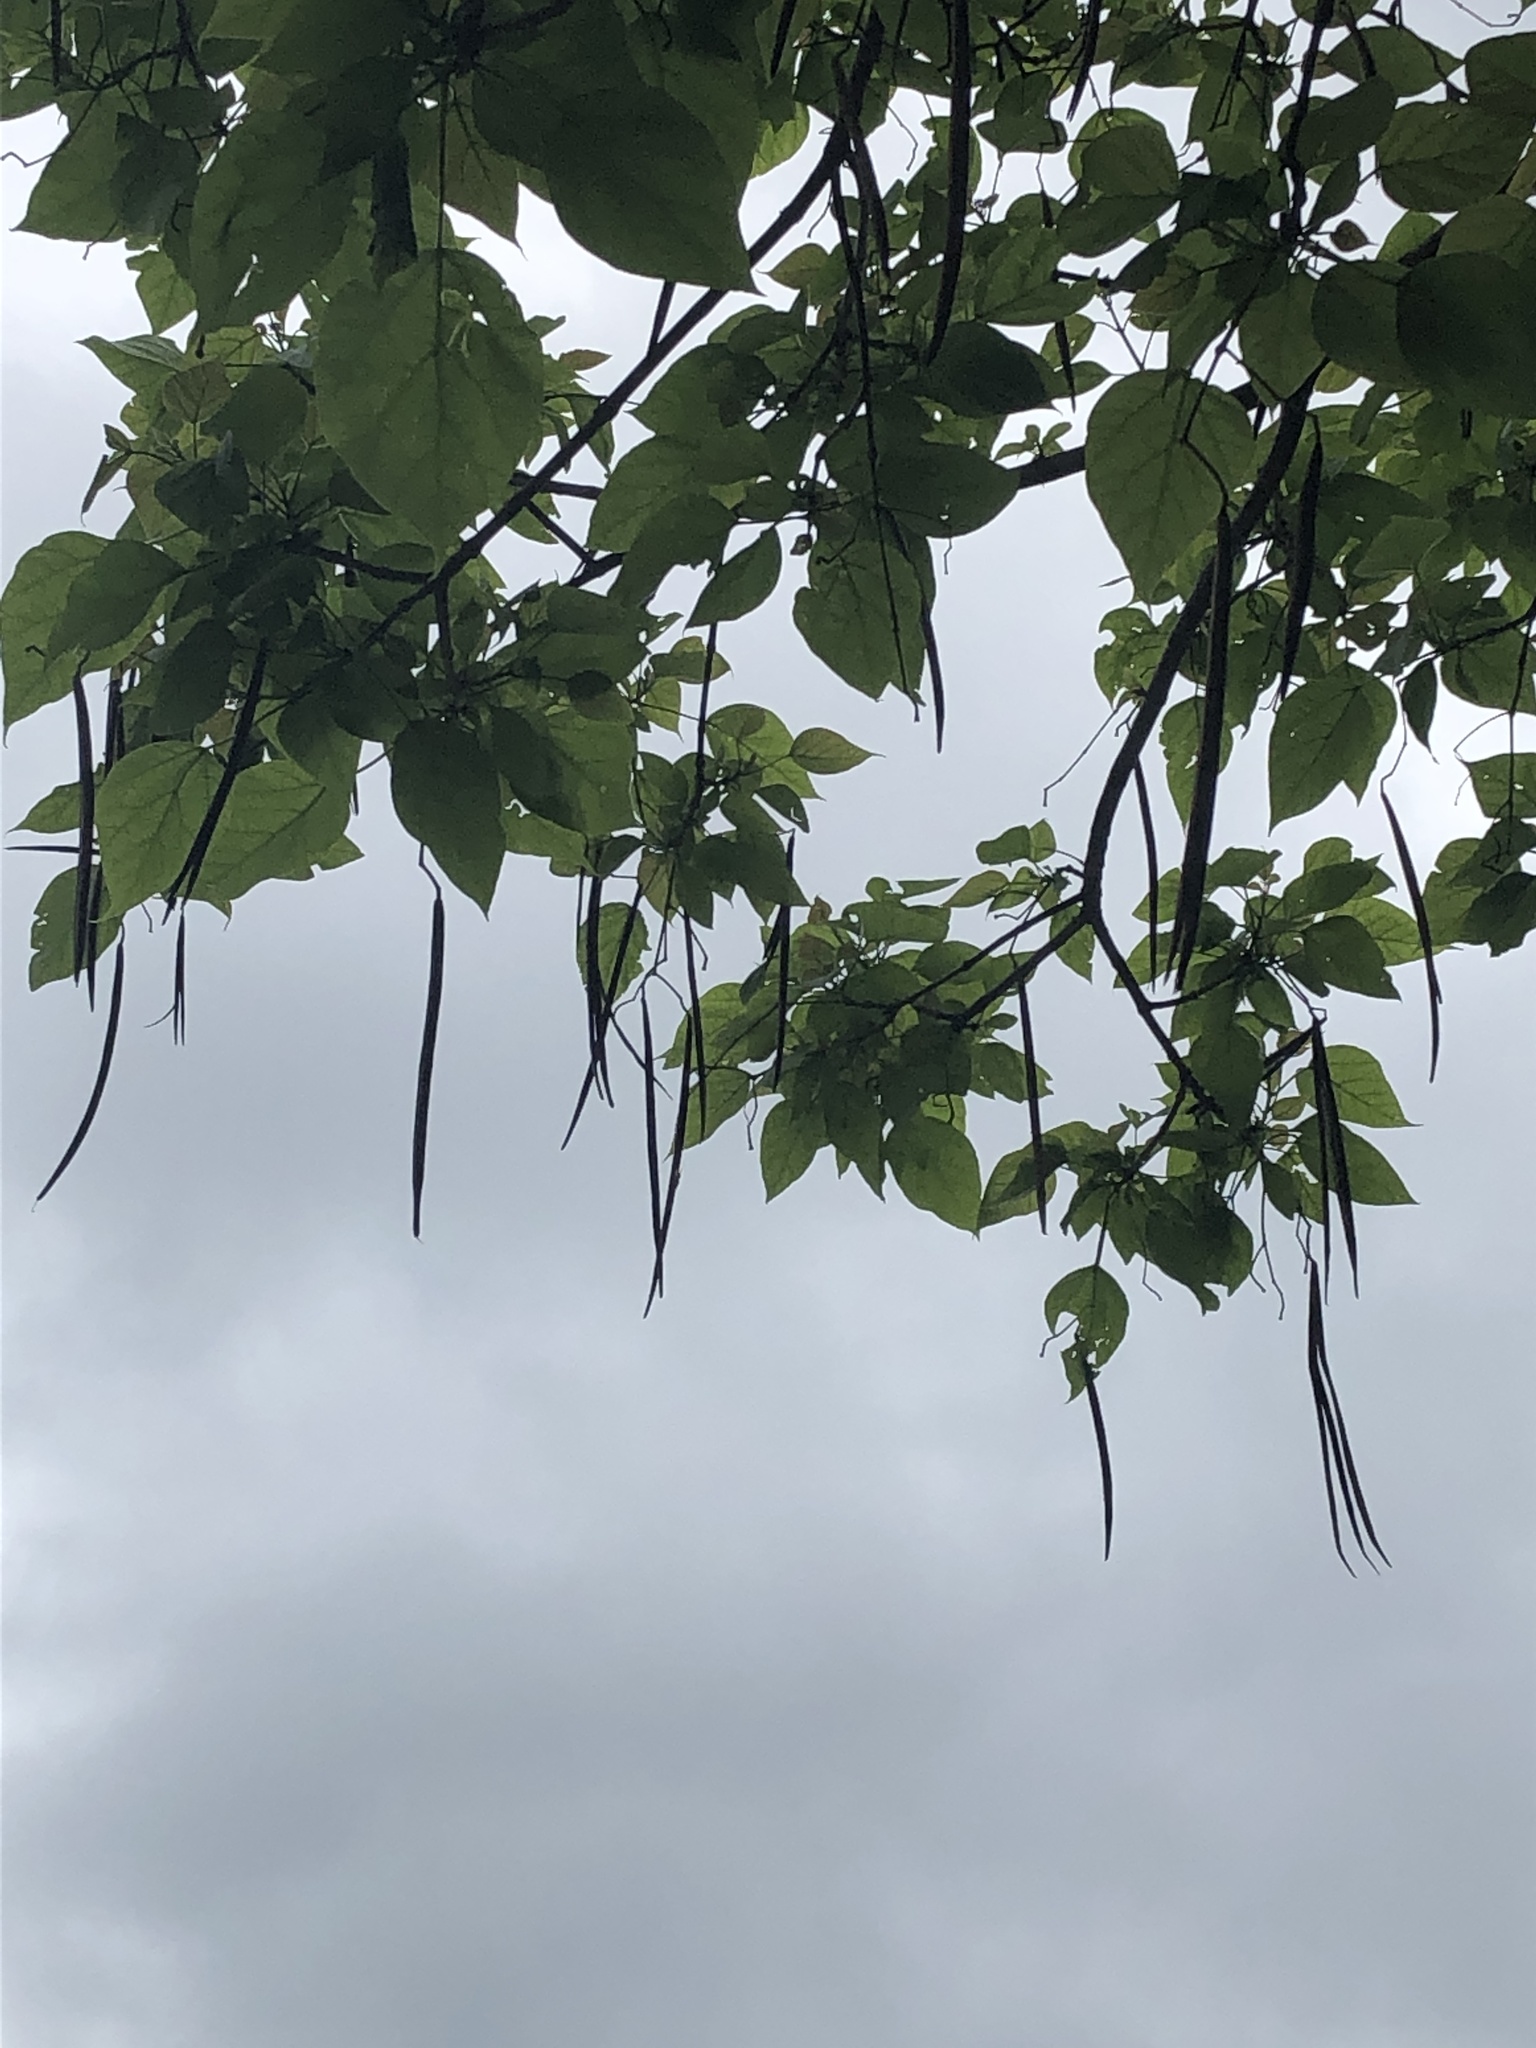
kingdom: Plantae
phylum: Tracheophyta
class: Magnoliopsida
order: Lamiales
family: Bignoniaceae
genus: Catalpa
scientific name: Catalpa speciosa
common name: Northern catalpa
